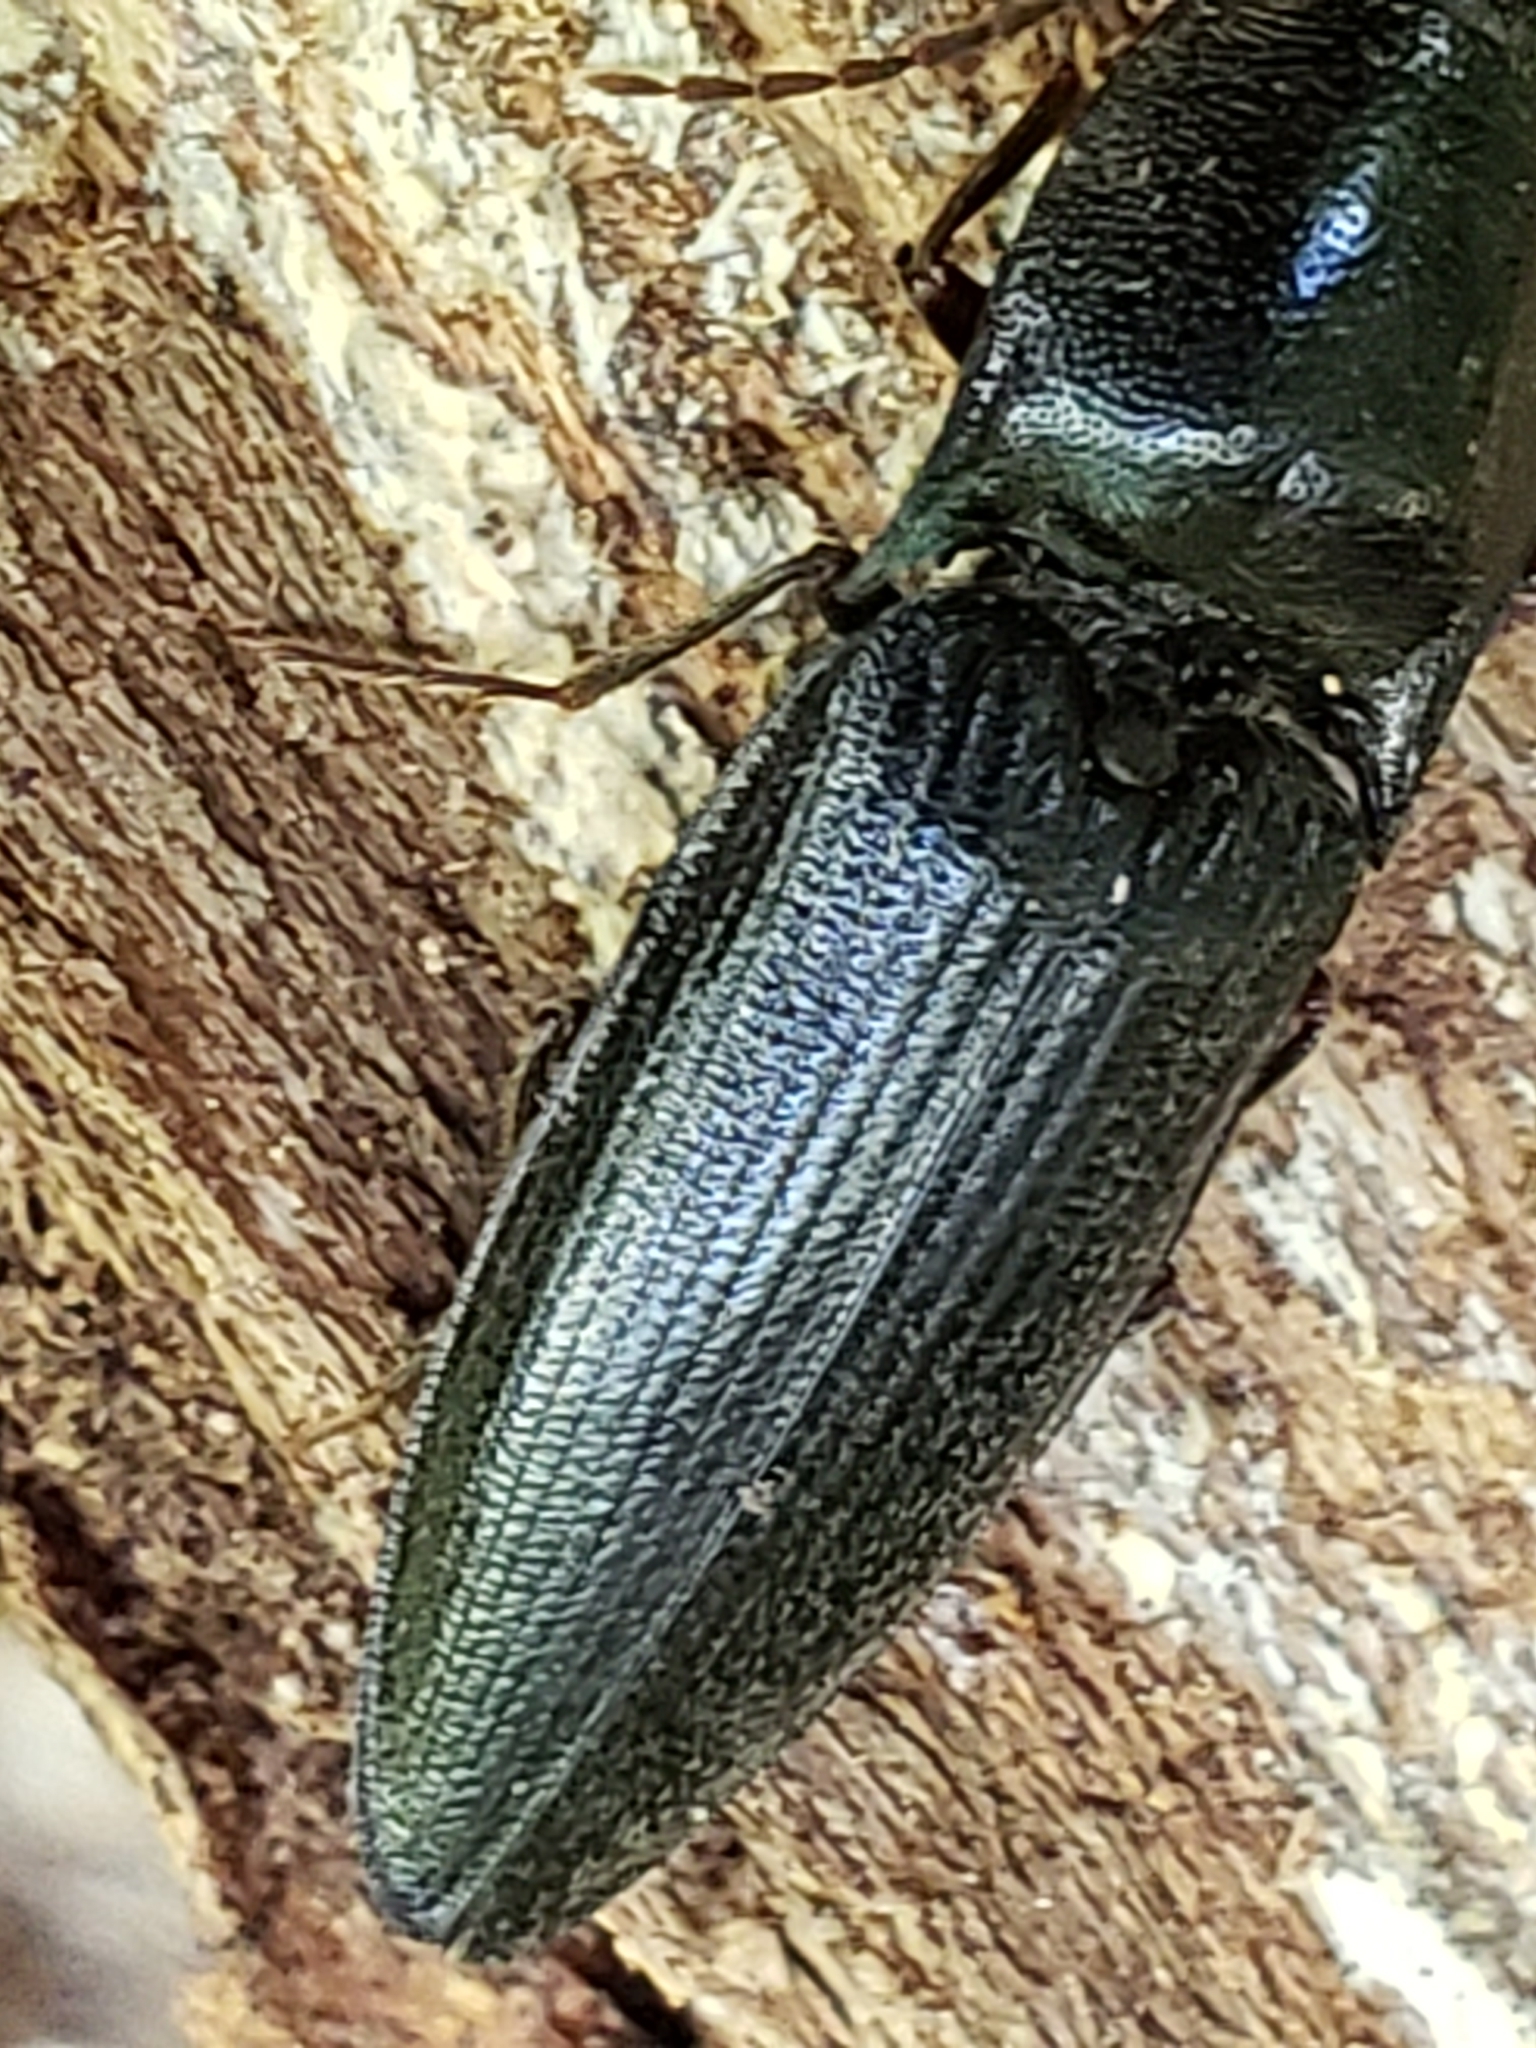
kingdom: Animalia
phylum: Arthropoda
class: Insecta
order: Coleoptera
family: Elateridae
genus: Neopristilophus
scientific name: Neopristilophus
